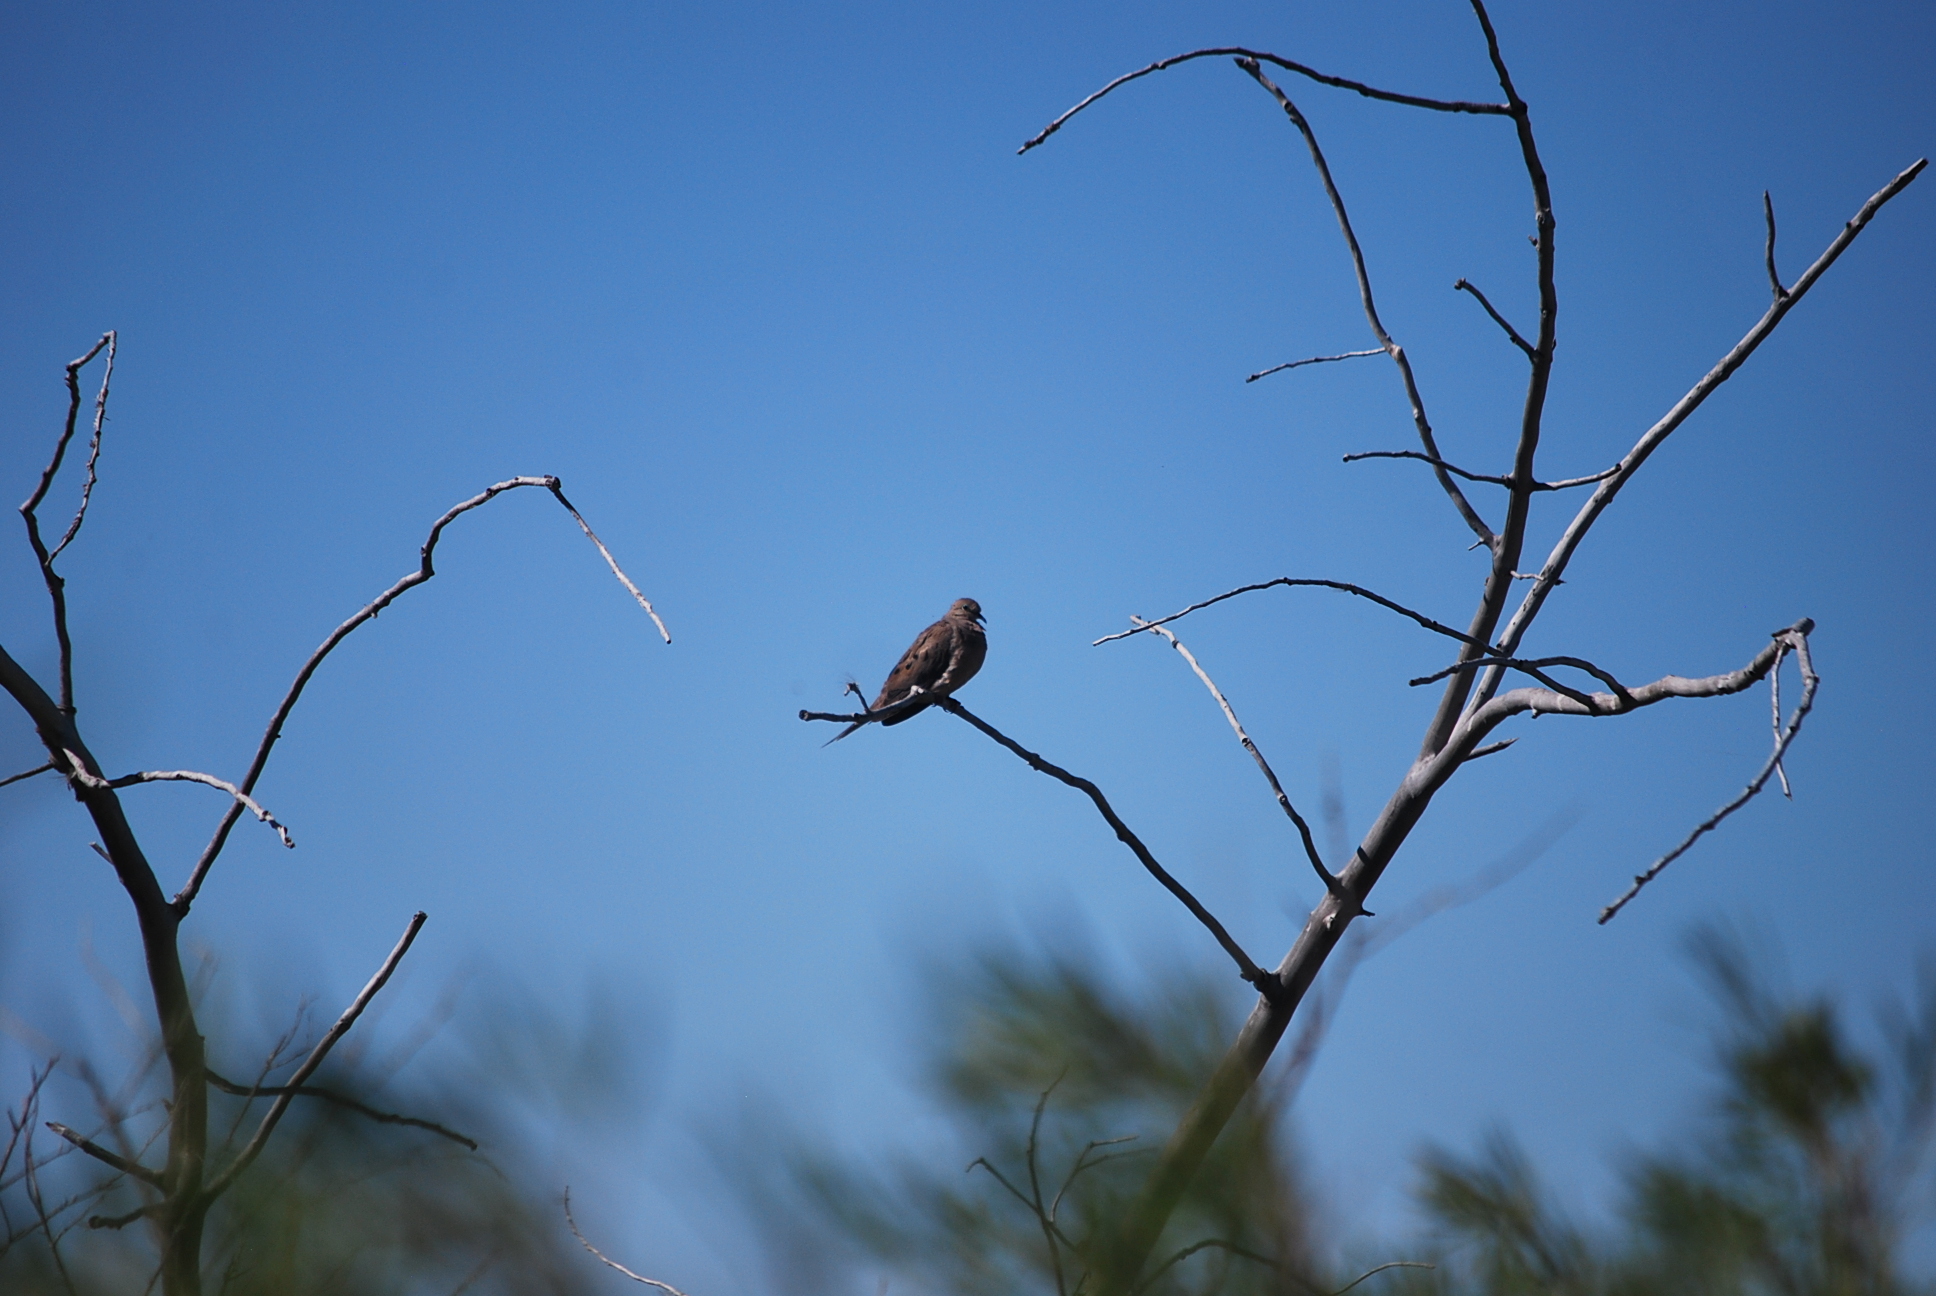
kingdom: Animalia
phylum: Chordata
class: Aves
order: Columbiformes
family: Columbidae
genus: Zenaida
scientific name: Zenaida macroura
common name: Mourning dove
